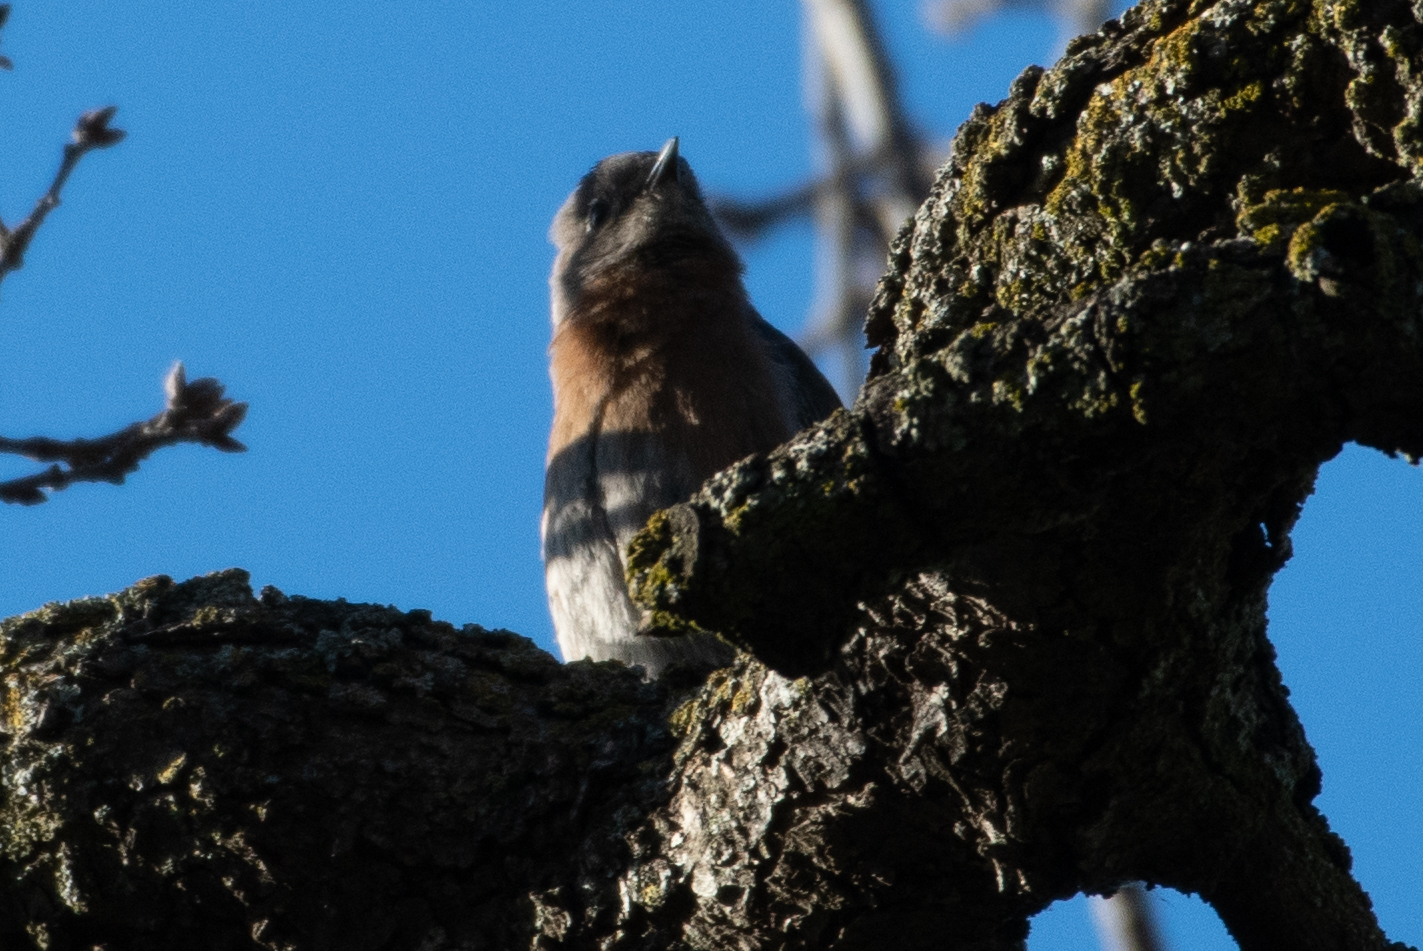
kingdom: Animalia
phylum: Chordata
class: Aves
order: Passeriformes
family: Turdidae
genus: Sialia
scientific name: Sialia mexicana
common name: Western bluebird
